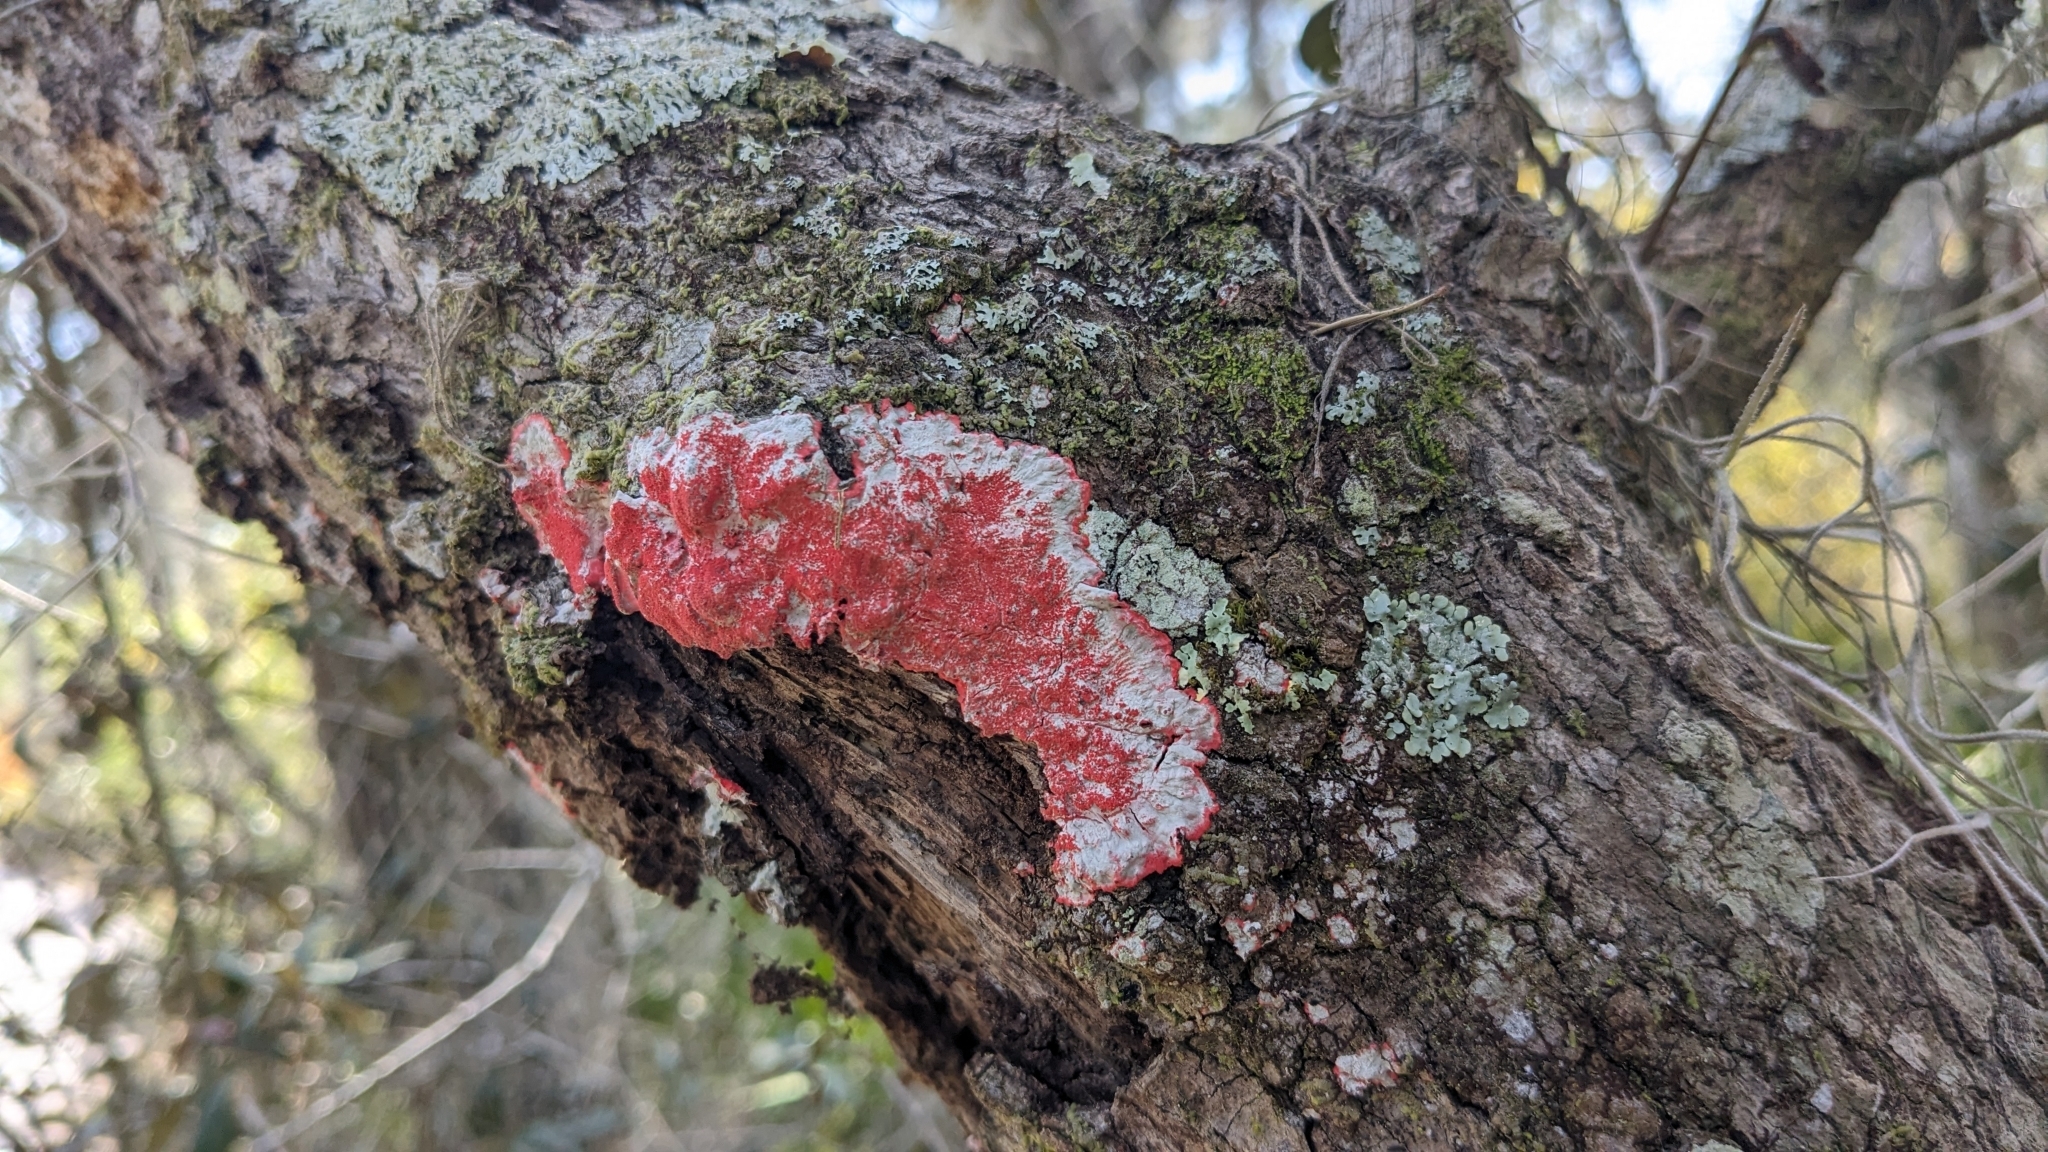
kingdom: Fungi
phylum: Ascomycota
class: Arthoniomycetes
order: Arthoniales
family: Arthoniaceae
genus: Herpothallon
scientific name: Herpothallon rubrocinctum
